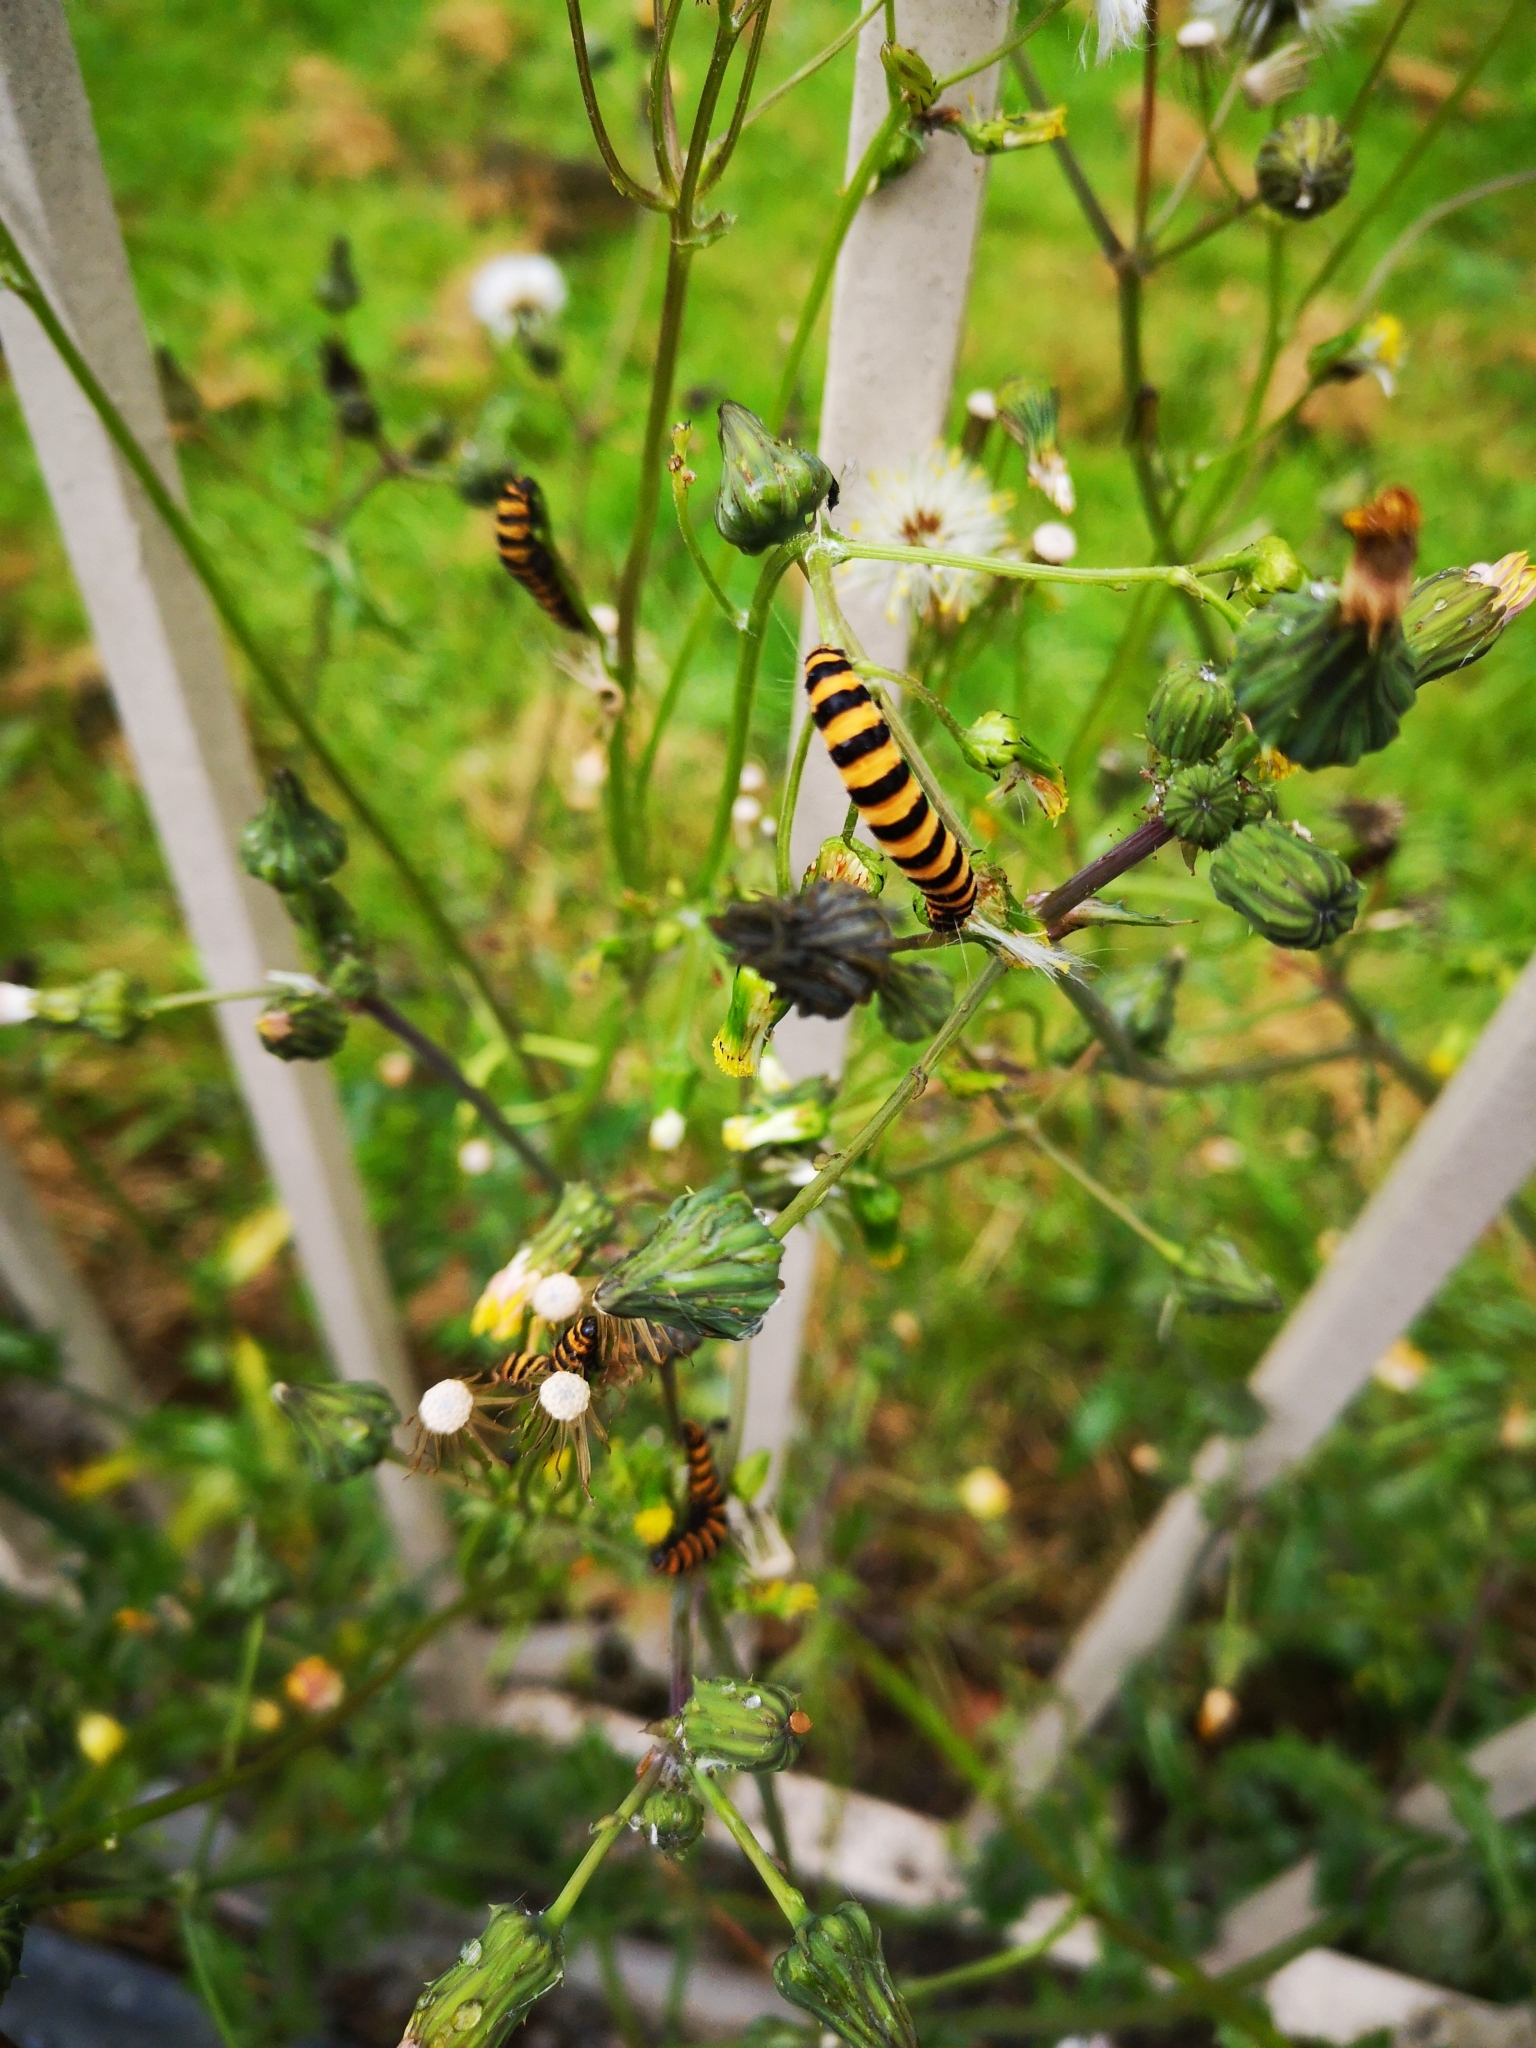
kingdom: Animalia
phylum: Arthropoda
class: Insecta
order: Lepidoptera
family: Erebidae
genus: Tyria
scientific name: Tyria jacobaeae
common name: Cinnabar
